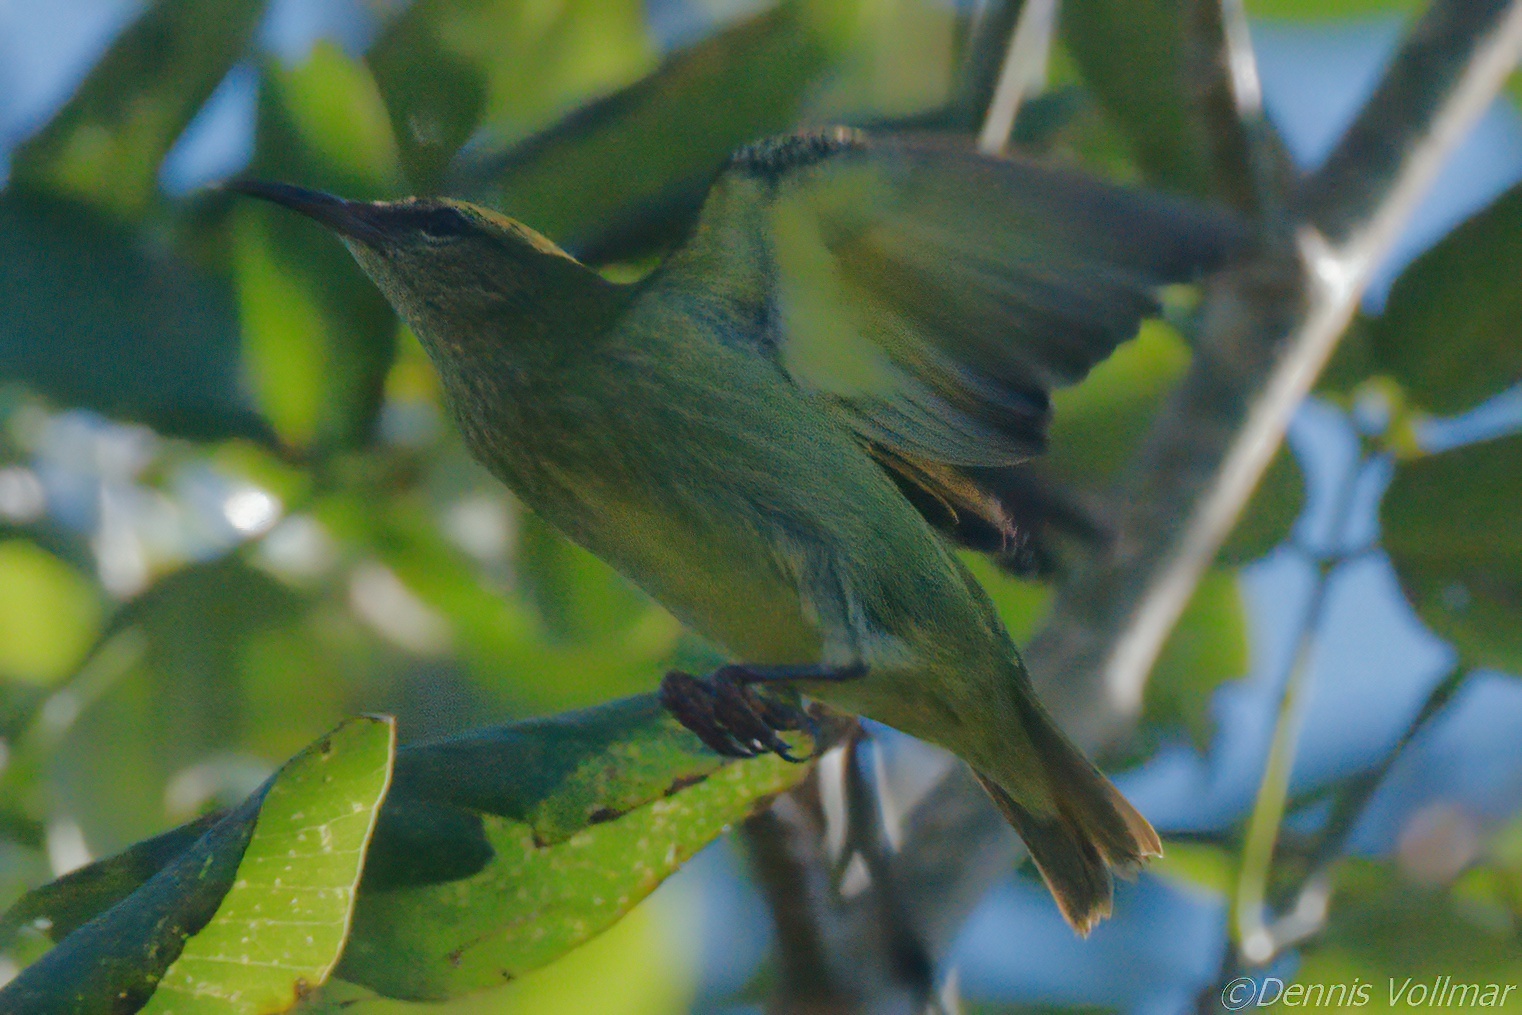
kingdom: Animalia
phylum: Chordata
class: Aves
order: Passeriformes
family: Thraupidae
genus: Cyanerpes
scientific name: Cyanerpes cyaneus
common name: Red-legged honeycreeper
